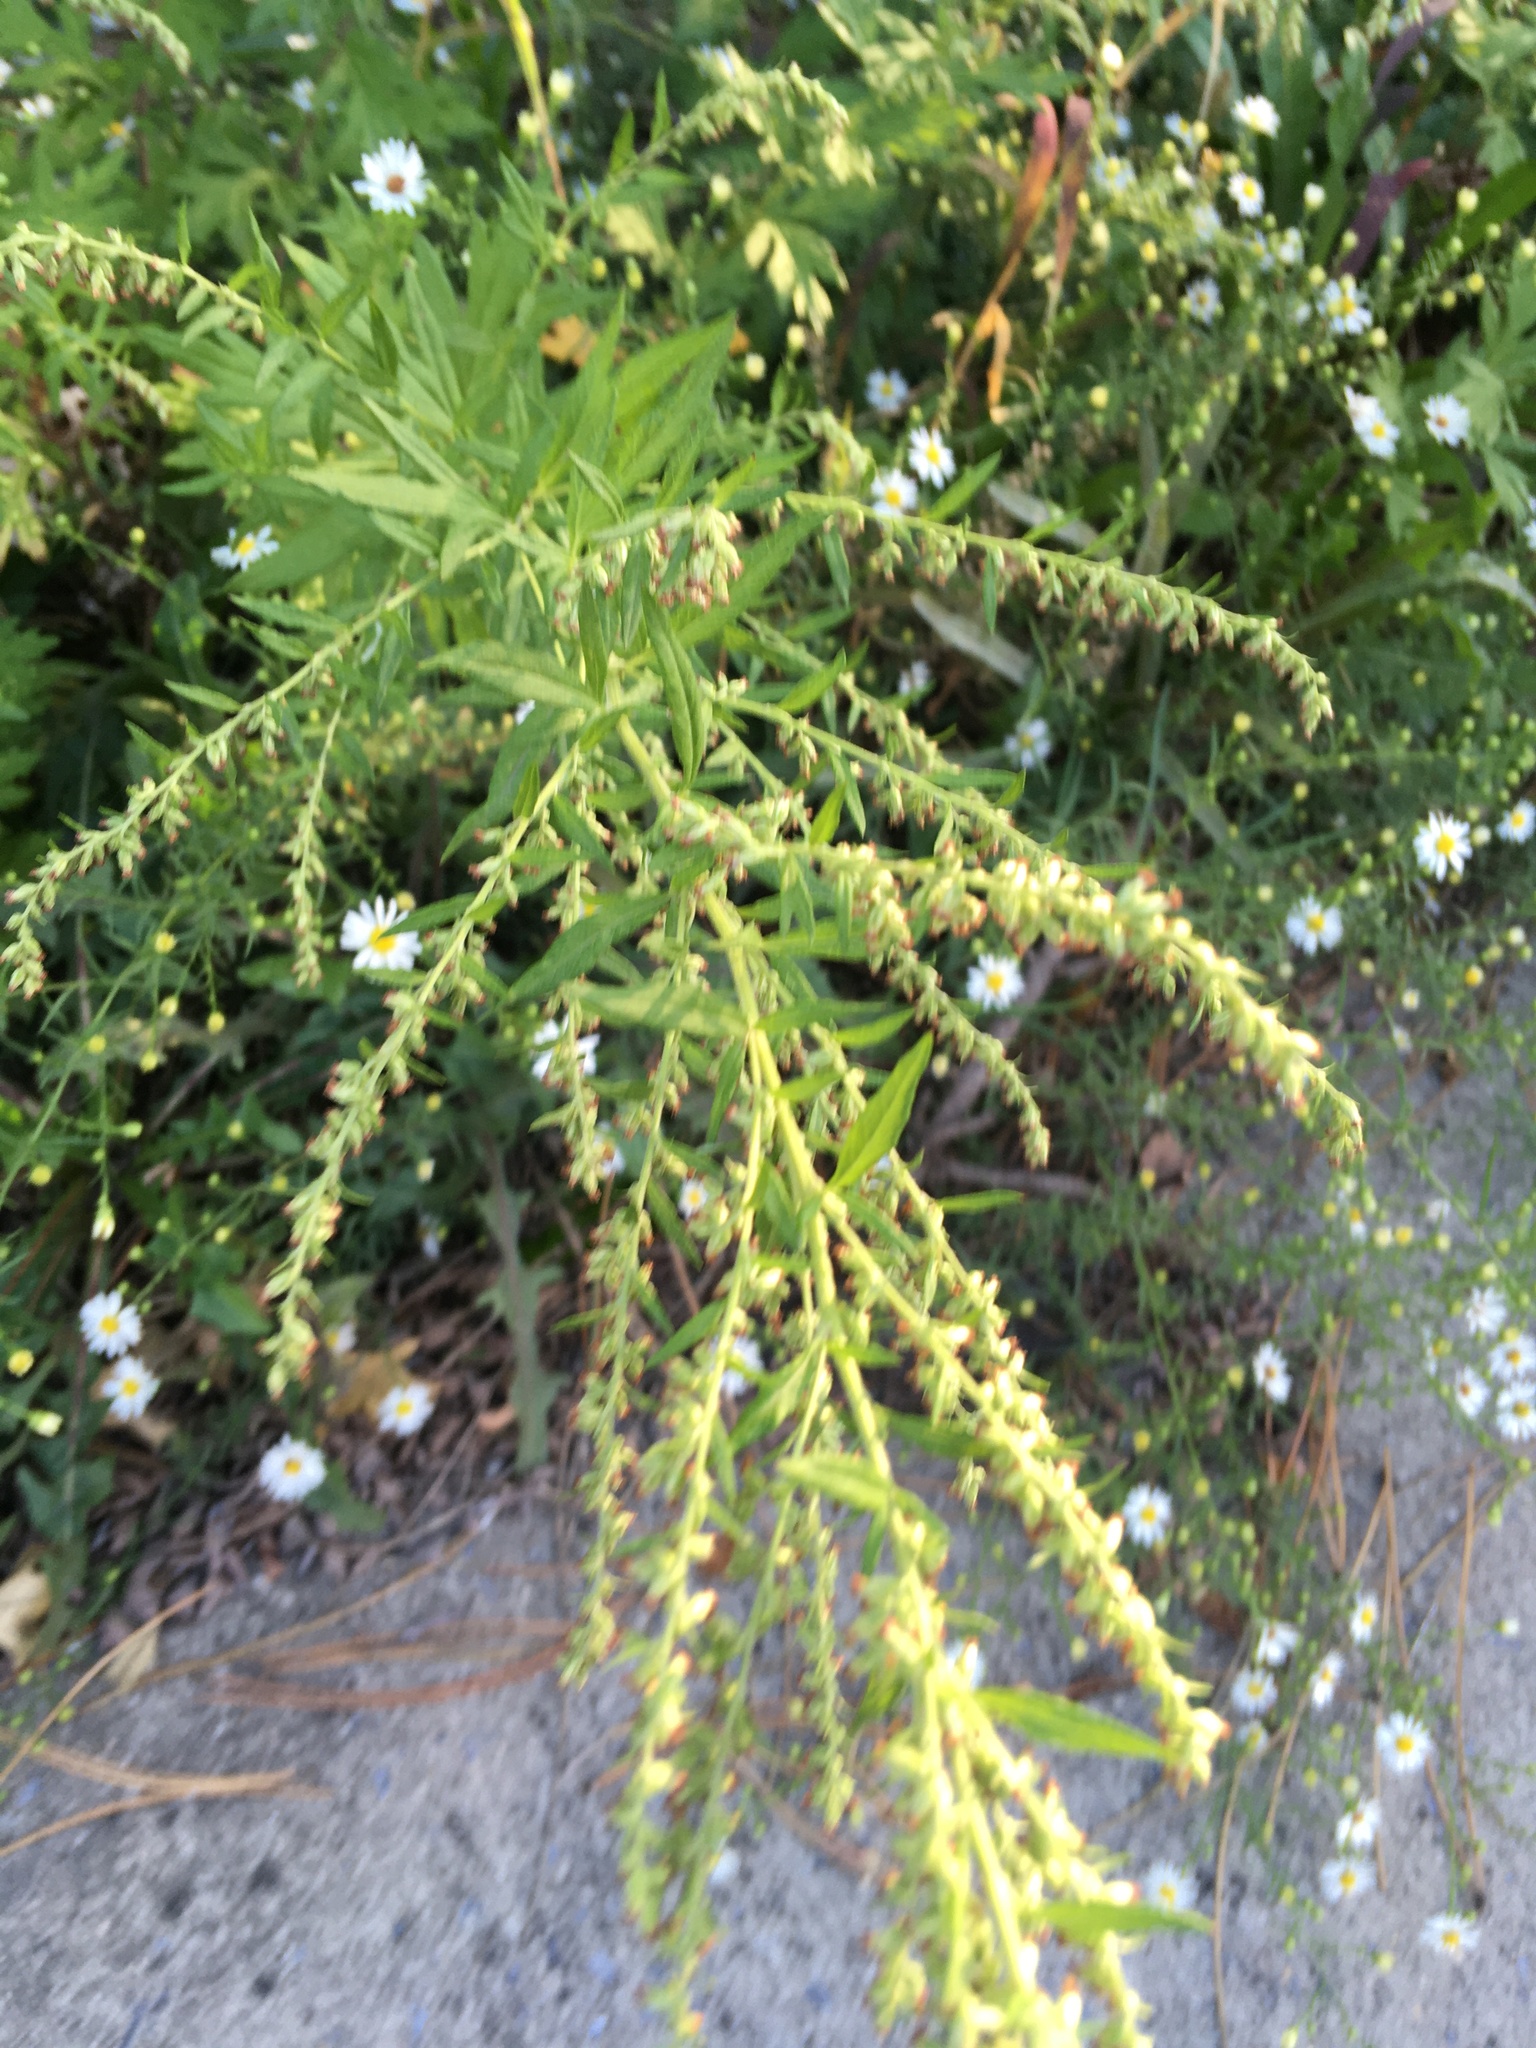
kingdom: Plantae
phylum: Tracheophyta
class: Magnoliopsida
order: Asterales
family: Asteraceae
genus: Artemisia
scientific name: Artemisia vulgaris
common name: Mugwort
